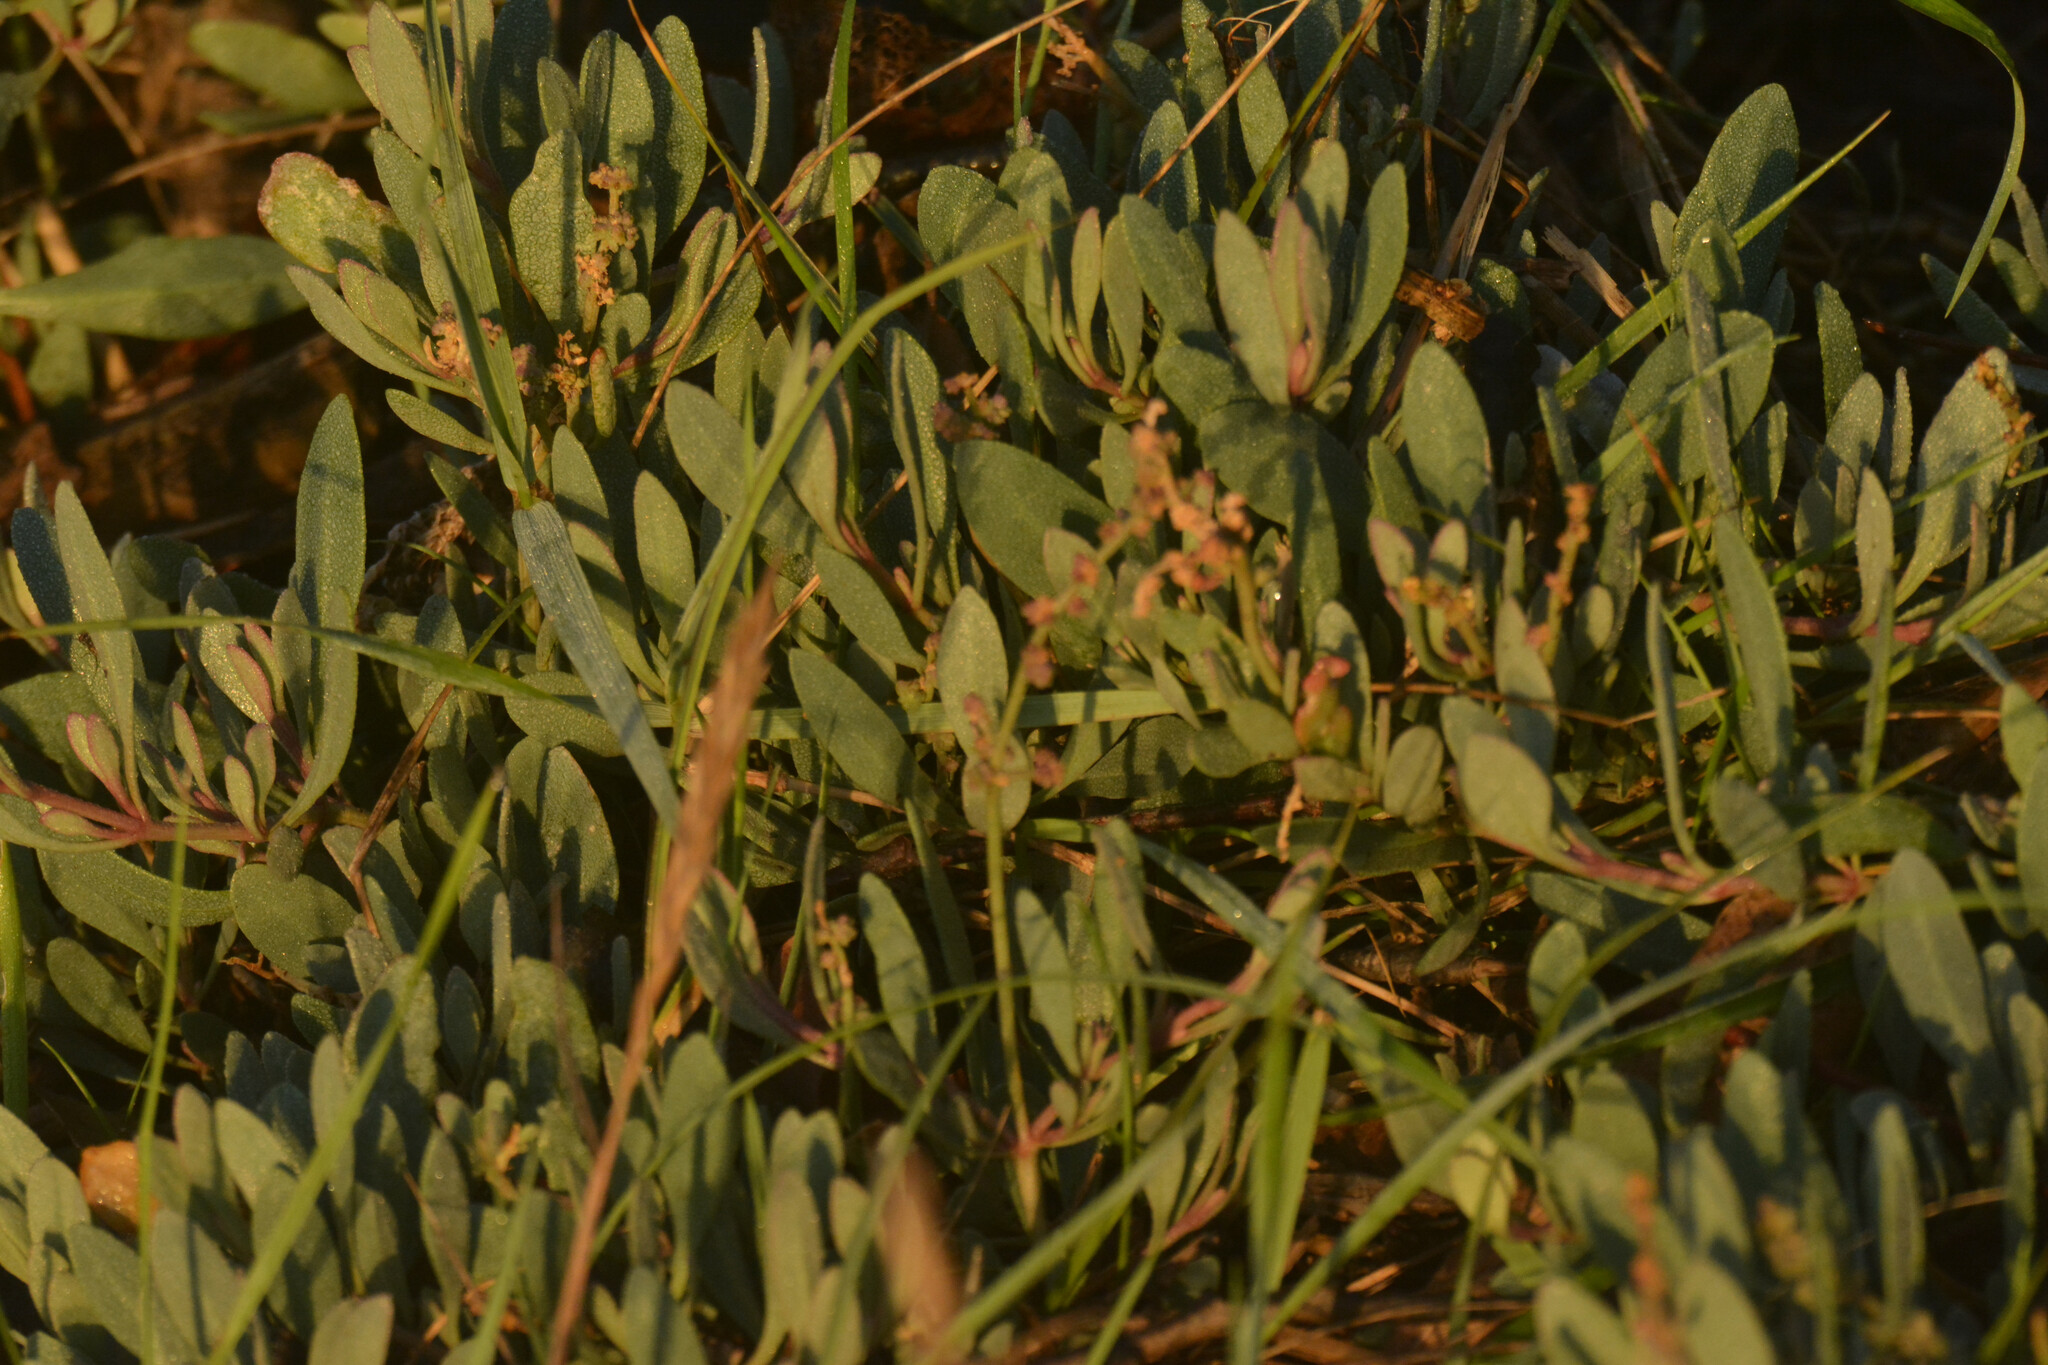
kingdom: Plantae
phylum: Tracheophyta
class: Magnoliopsida
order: Caryophyllales
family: Amaranthaceae
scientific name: Amaranthaceae
